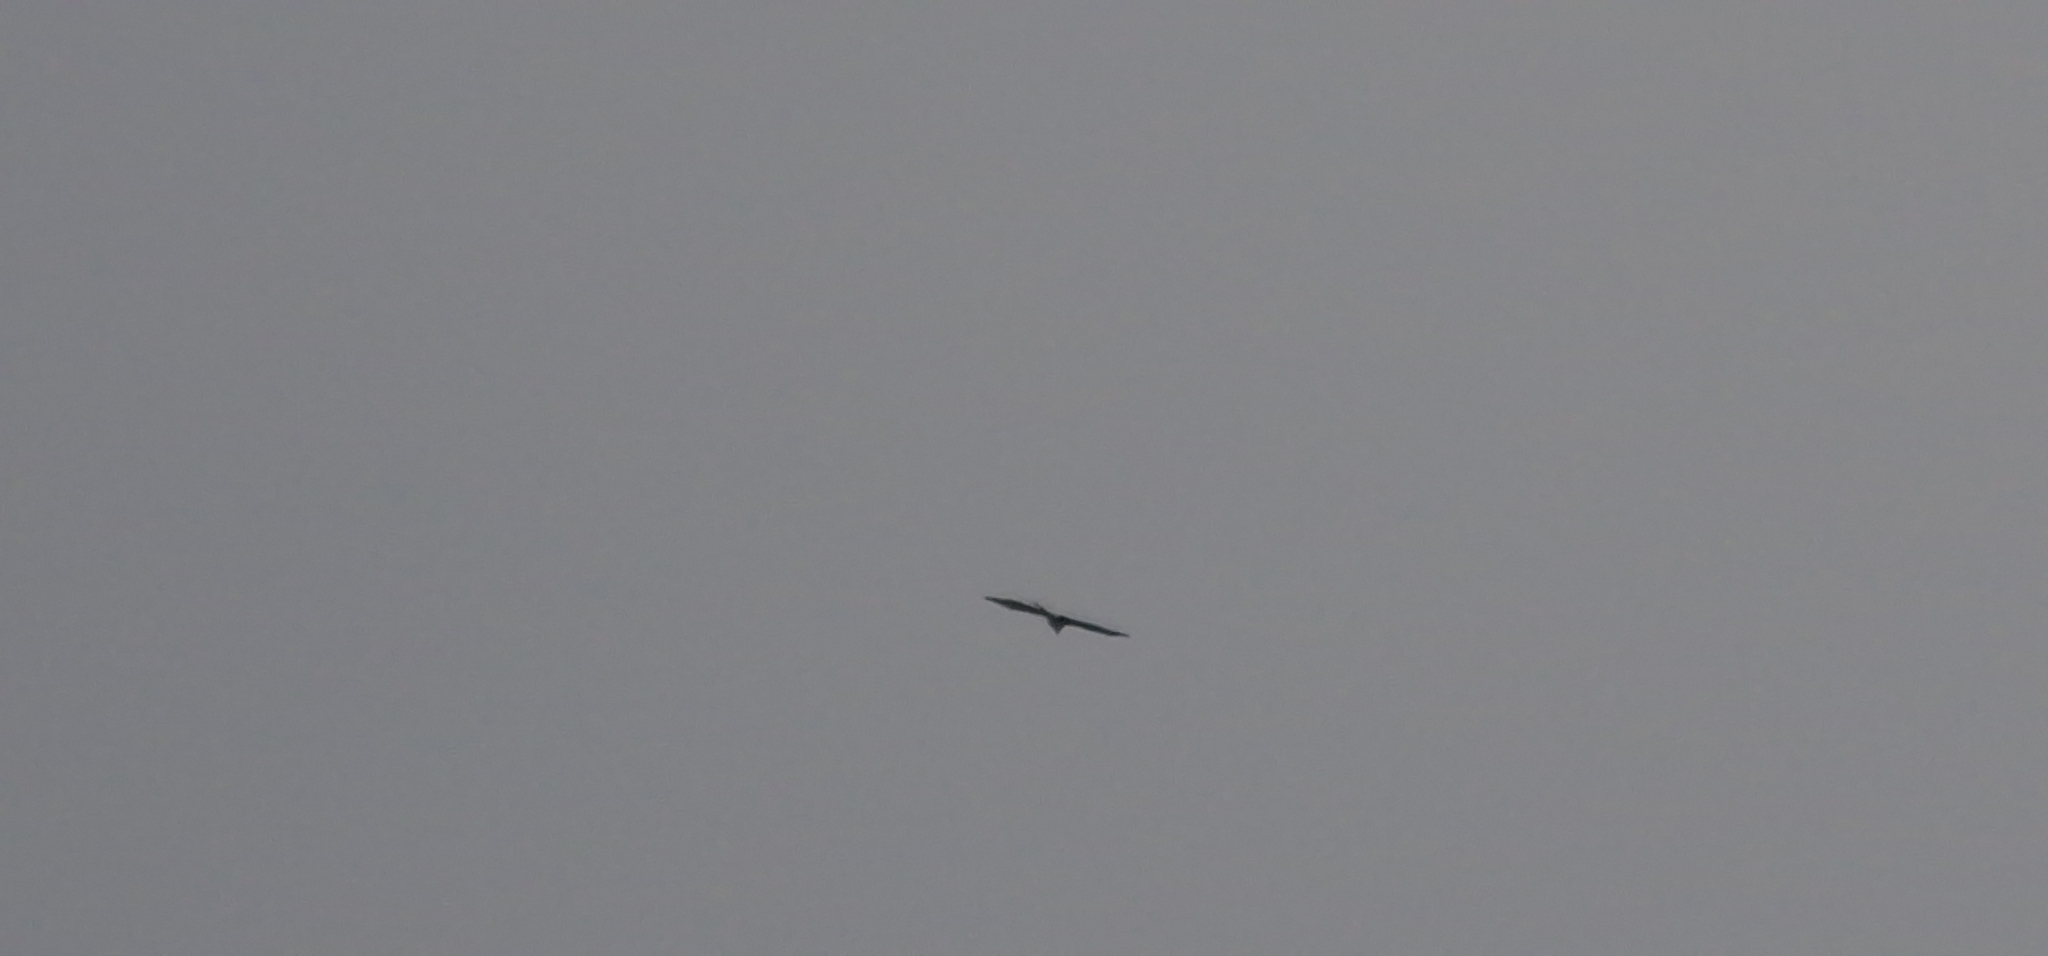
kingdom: Animalia
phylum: Chordata
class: Aves
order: Accipitriformes
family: Accipitridae
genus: Buteo
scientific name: Buteo buteo
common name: Common buzzard
